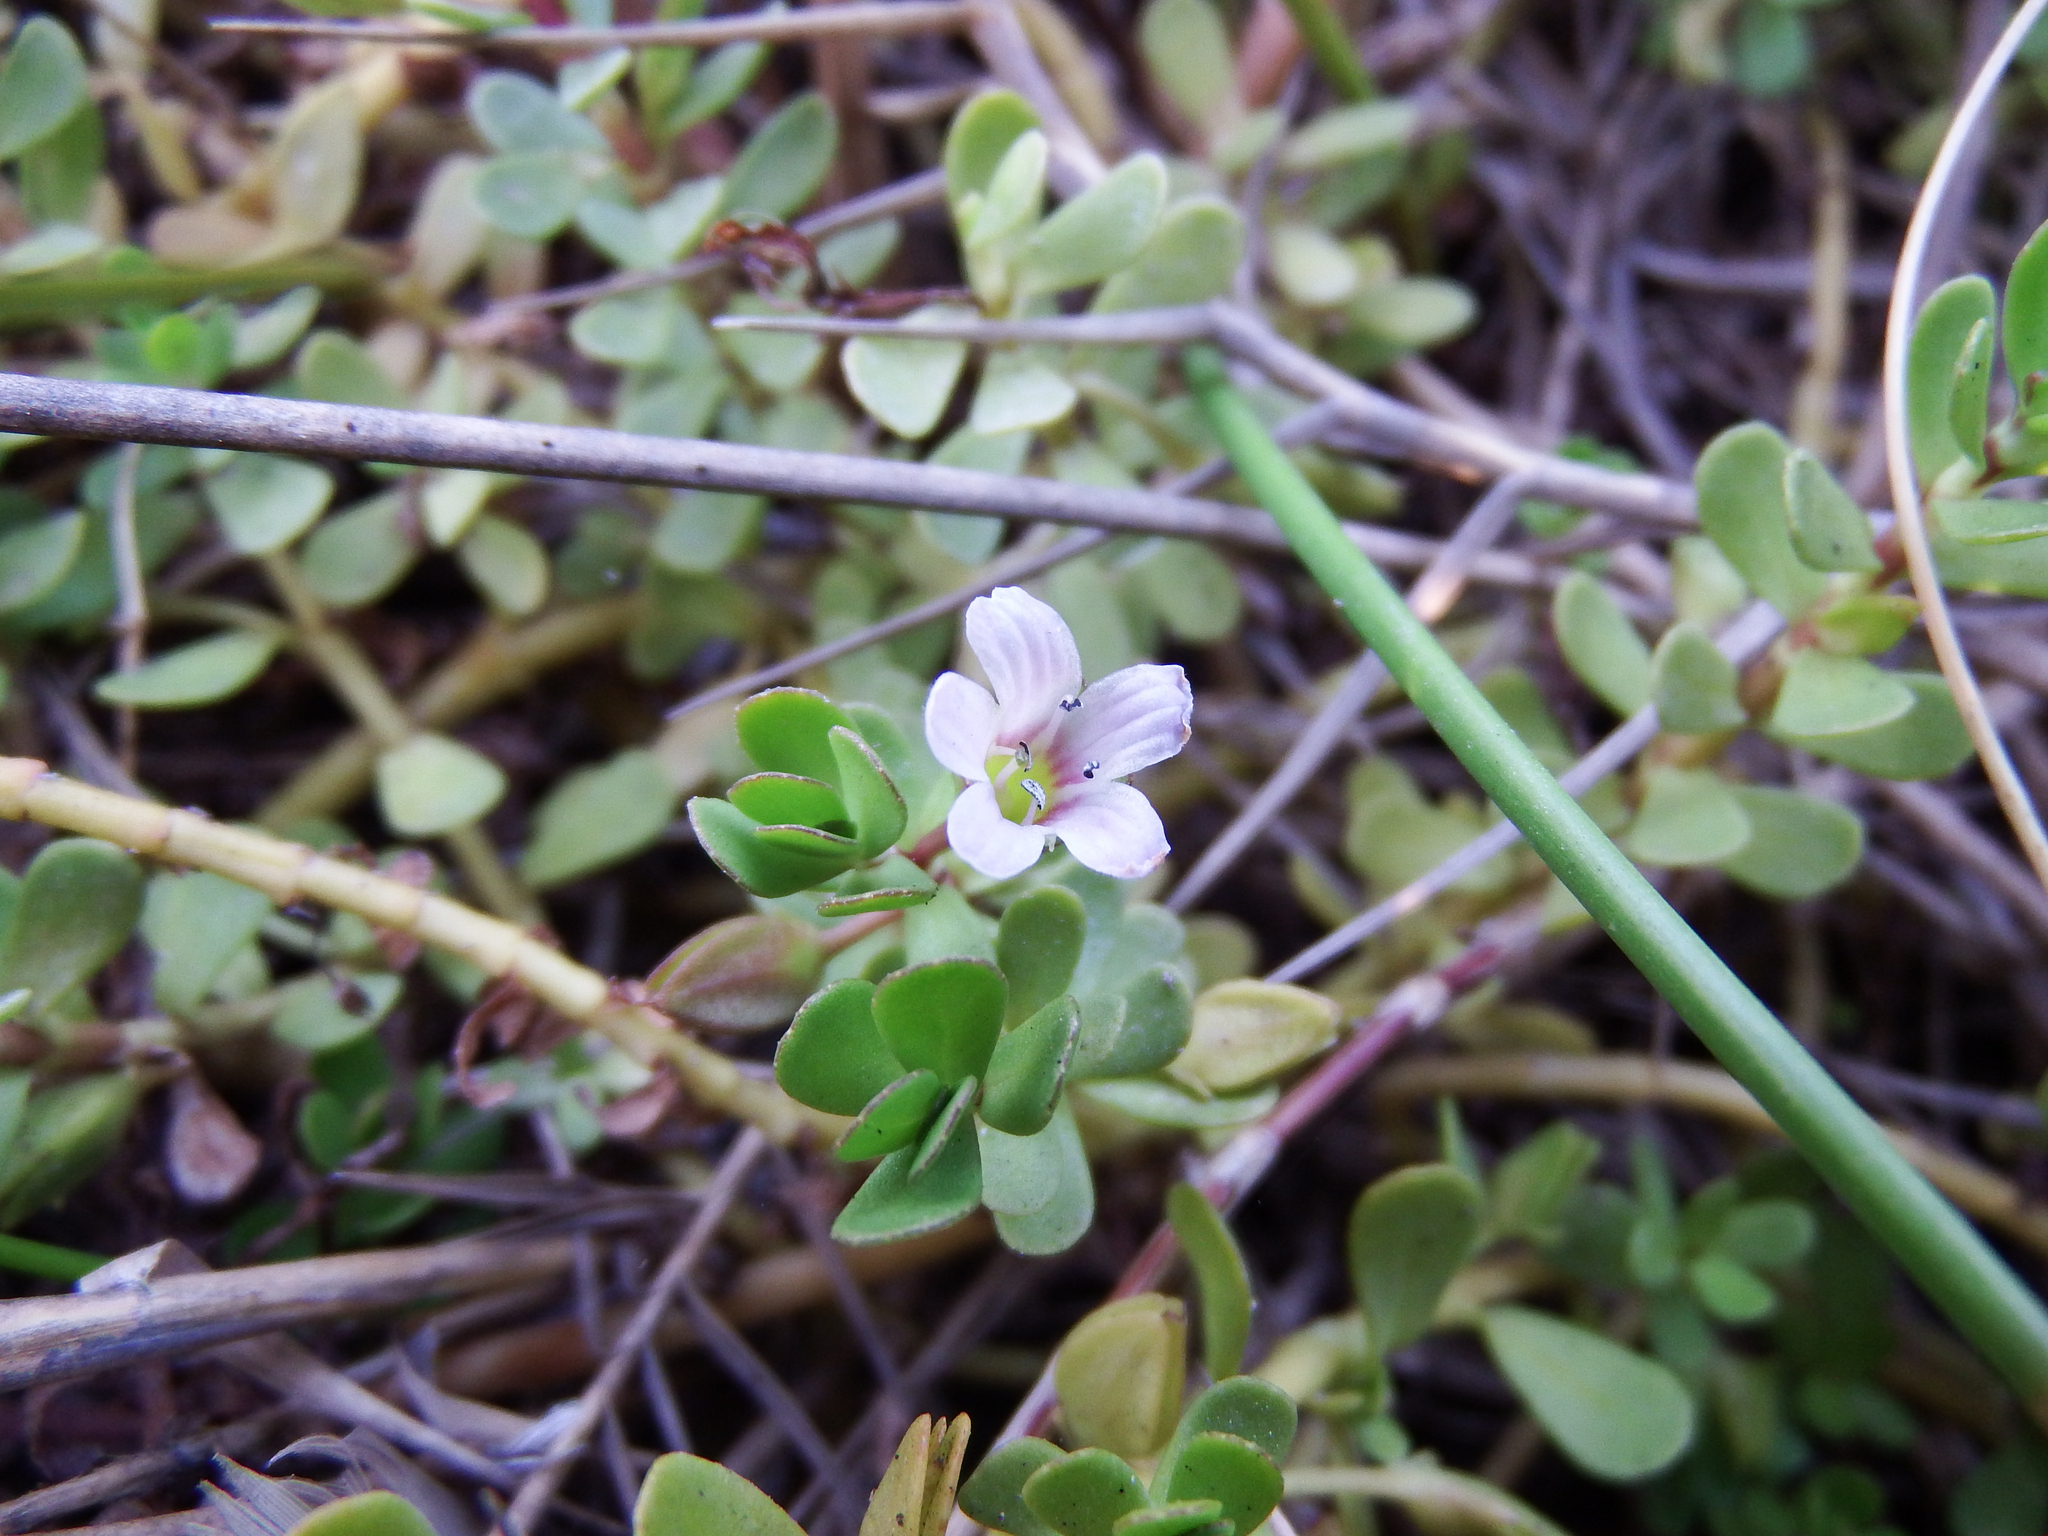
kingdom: Plantae
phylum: Tracheophyta
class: Magnoliopsida
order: Lamiales
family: Plantaginaceae
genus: Bacopa
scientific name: Bacopa monnieri
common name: Indian-pennywort
